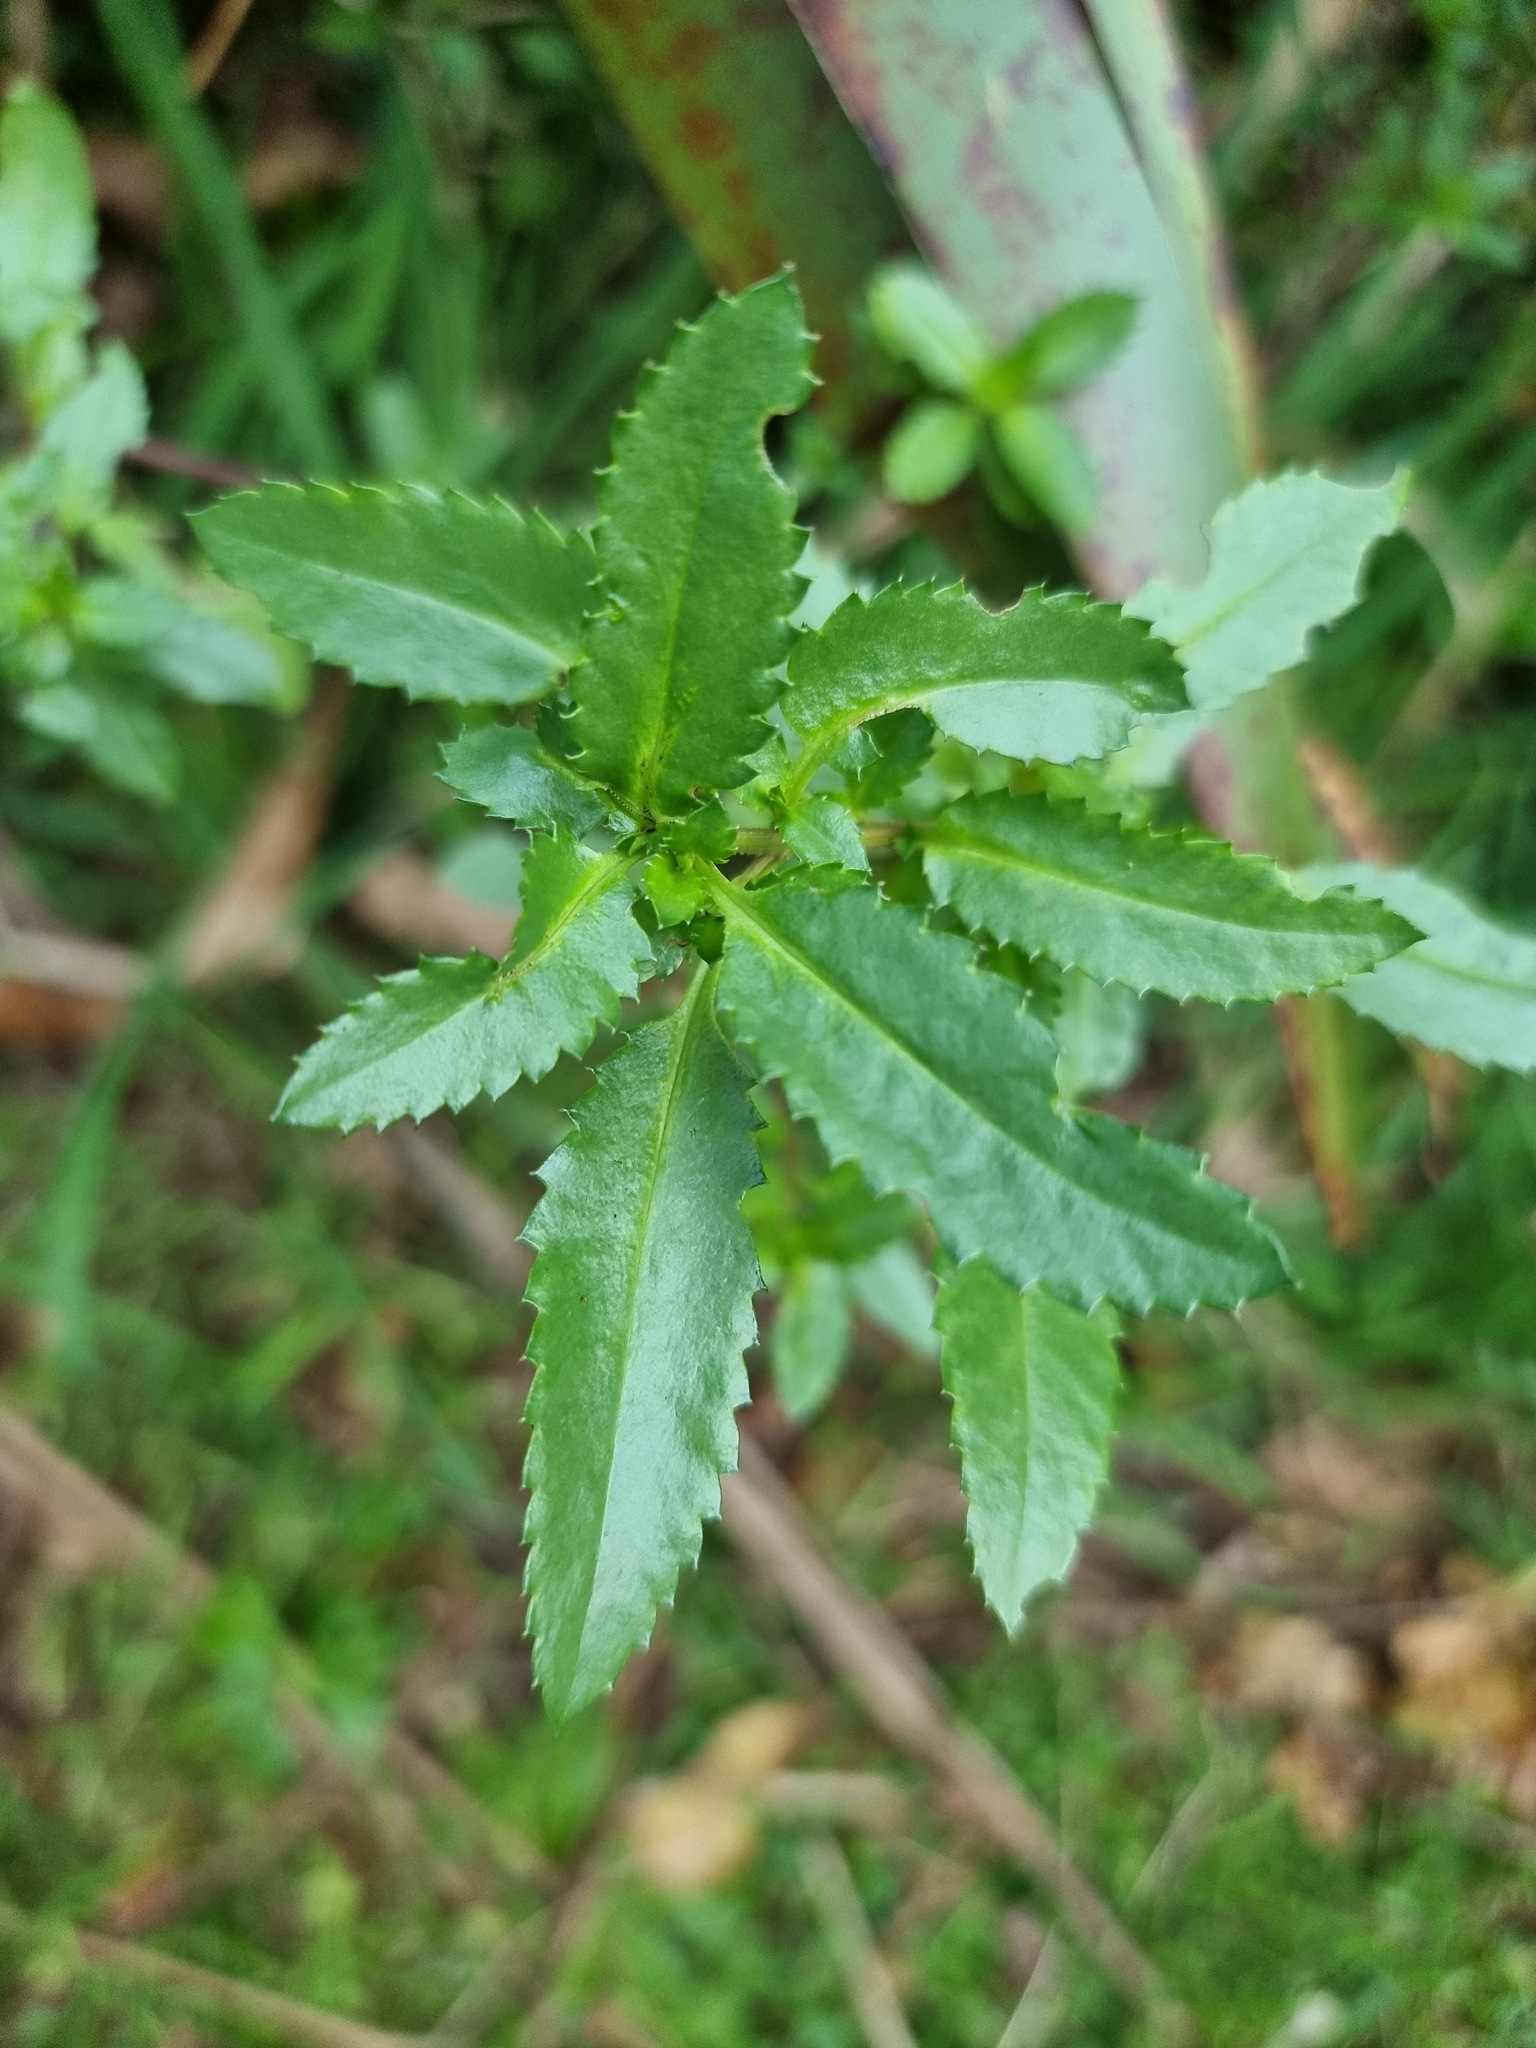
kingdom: Plantae
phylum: Tracheophyta
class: Magnoliopsida
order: Saxifragales
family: Haloragaceae
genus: Haloragis
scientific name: Haloragis erecta
